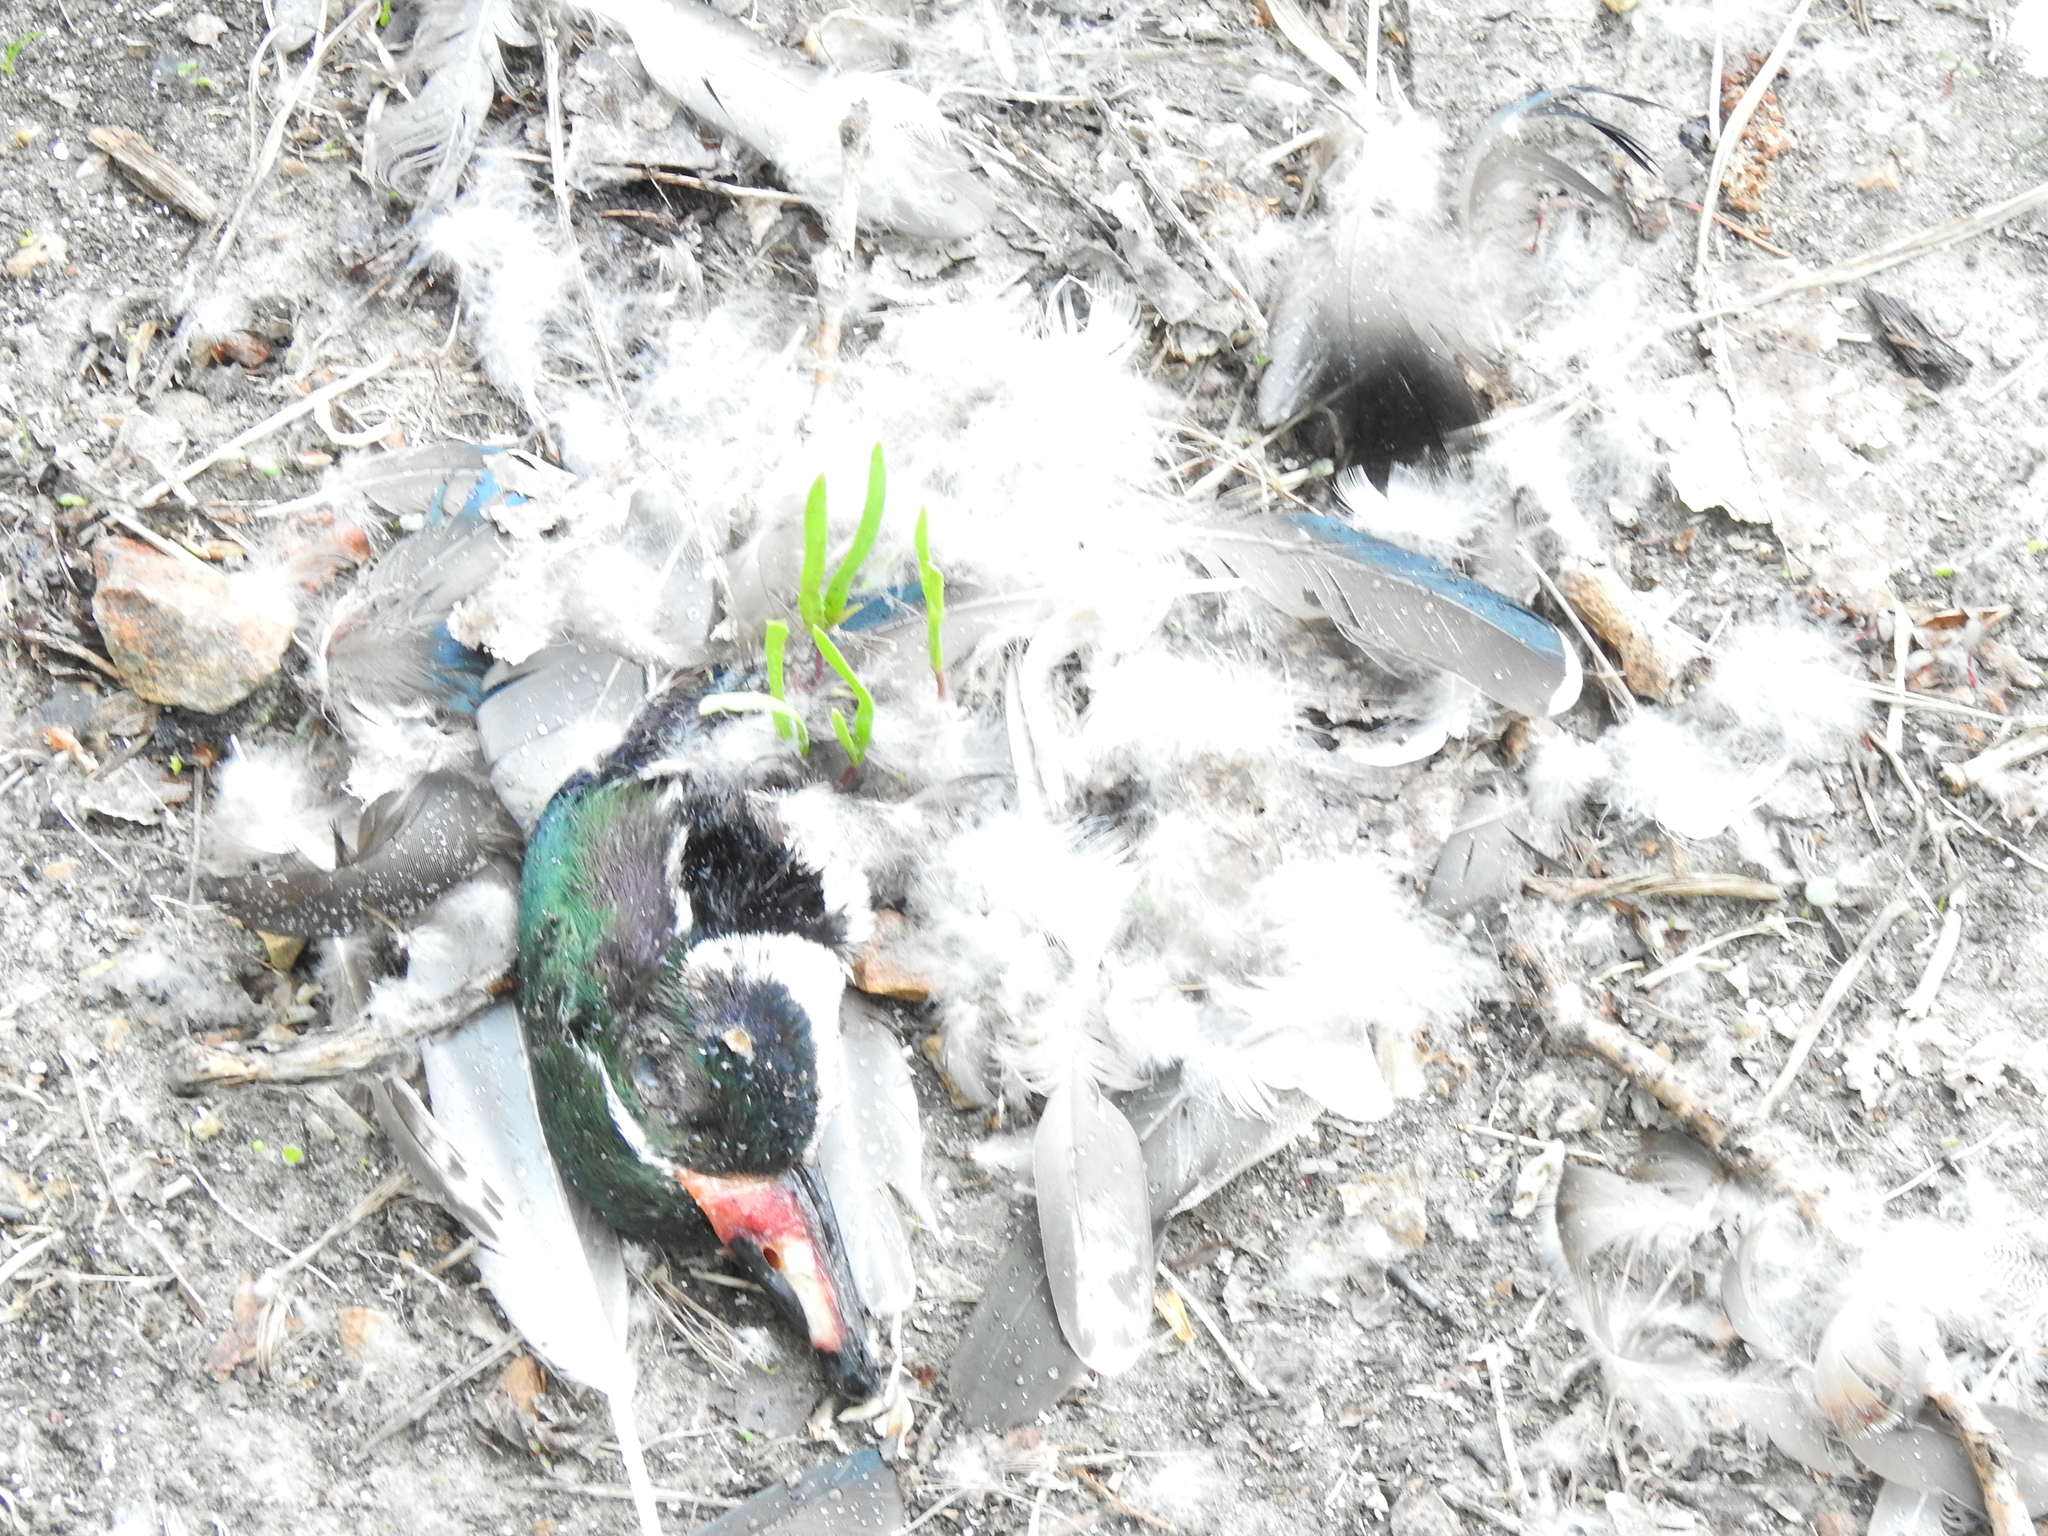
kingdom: Animalia
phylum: Chordata
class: Aves
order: Anseriformes
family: Anatidae
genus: Aix
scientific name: Aix sponsa
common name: Wood duck
